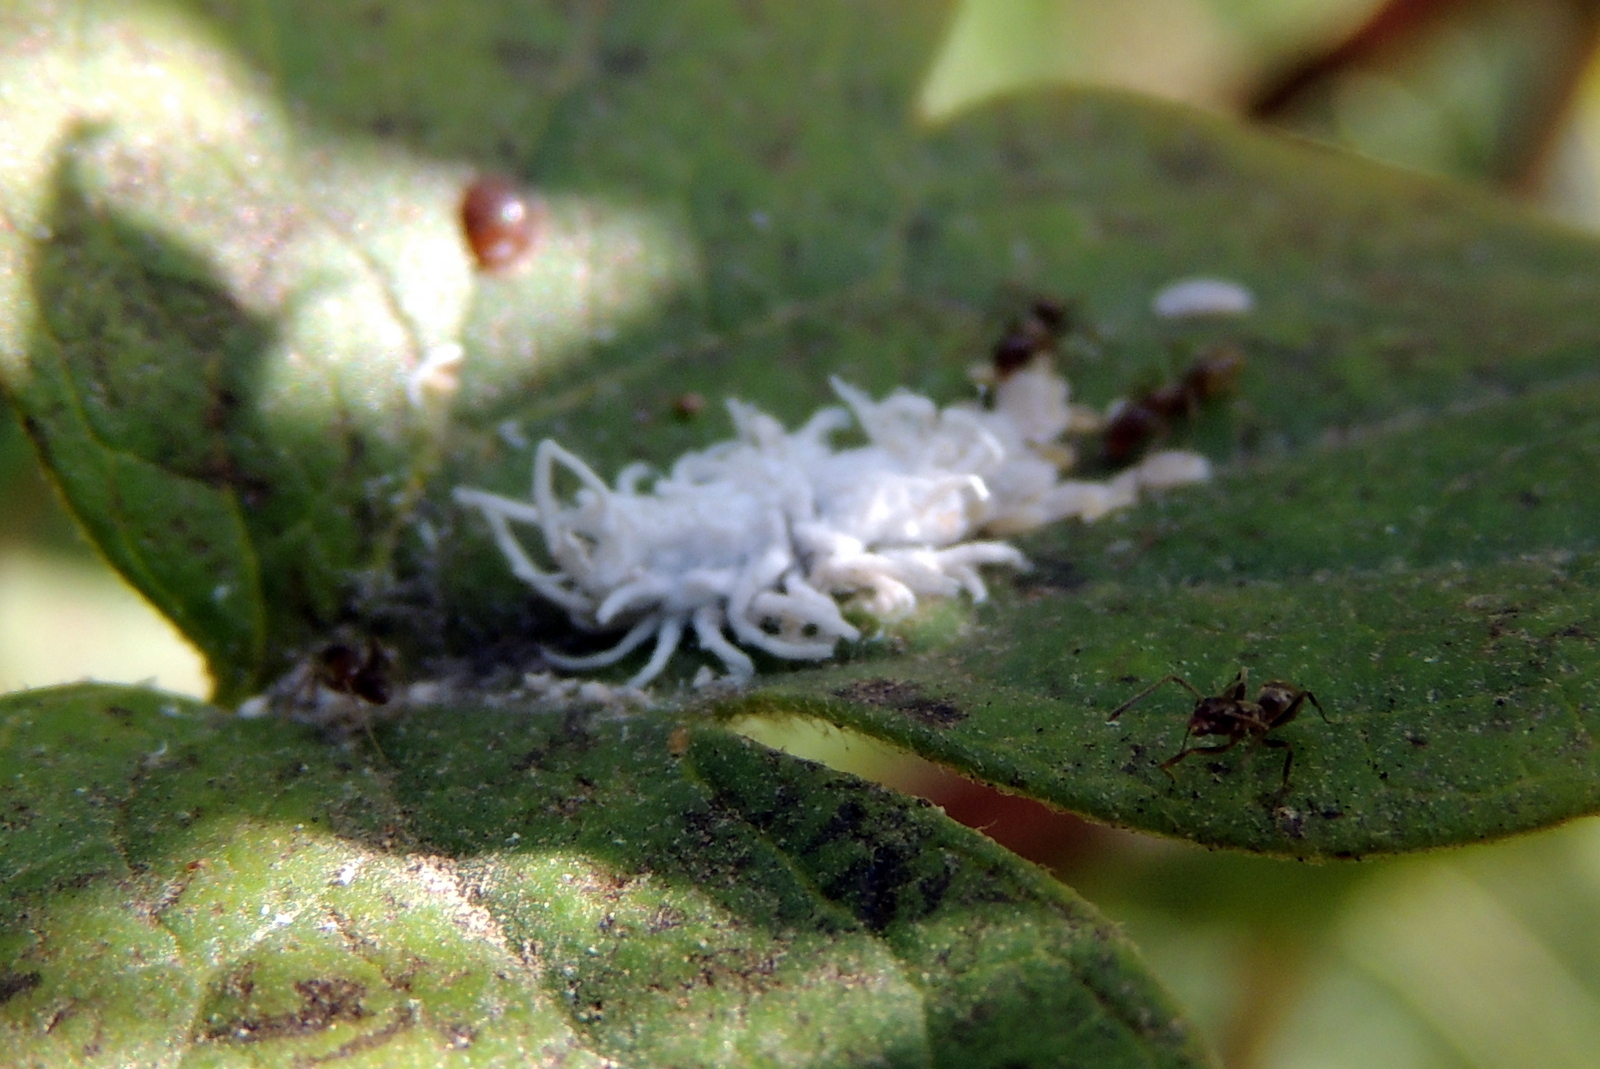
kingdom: Animalia
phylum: Arthropoda
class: Insecta
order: Coleoptera
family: Coccinellidae
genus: Cryptolaemus
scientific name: Cryptolaemus montrouzieri
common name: Mealybug destroyer
